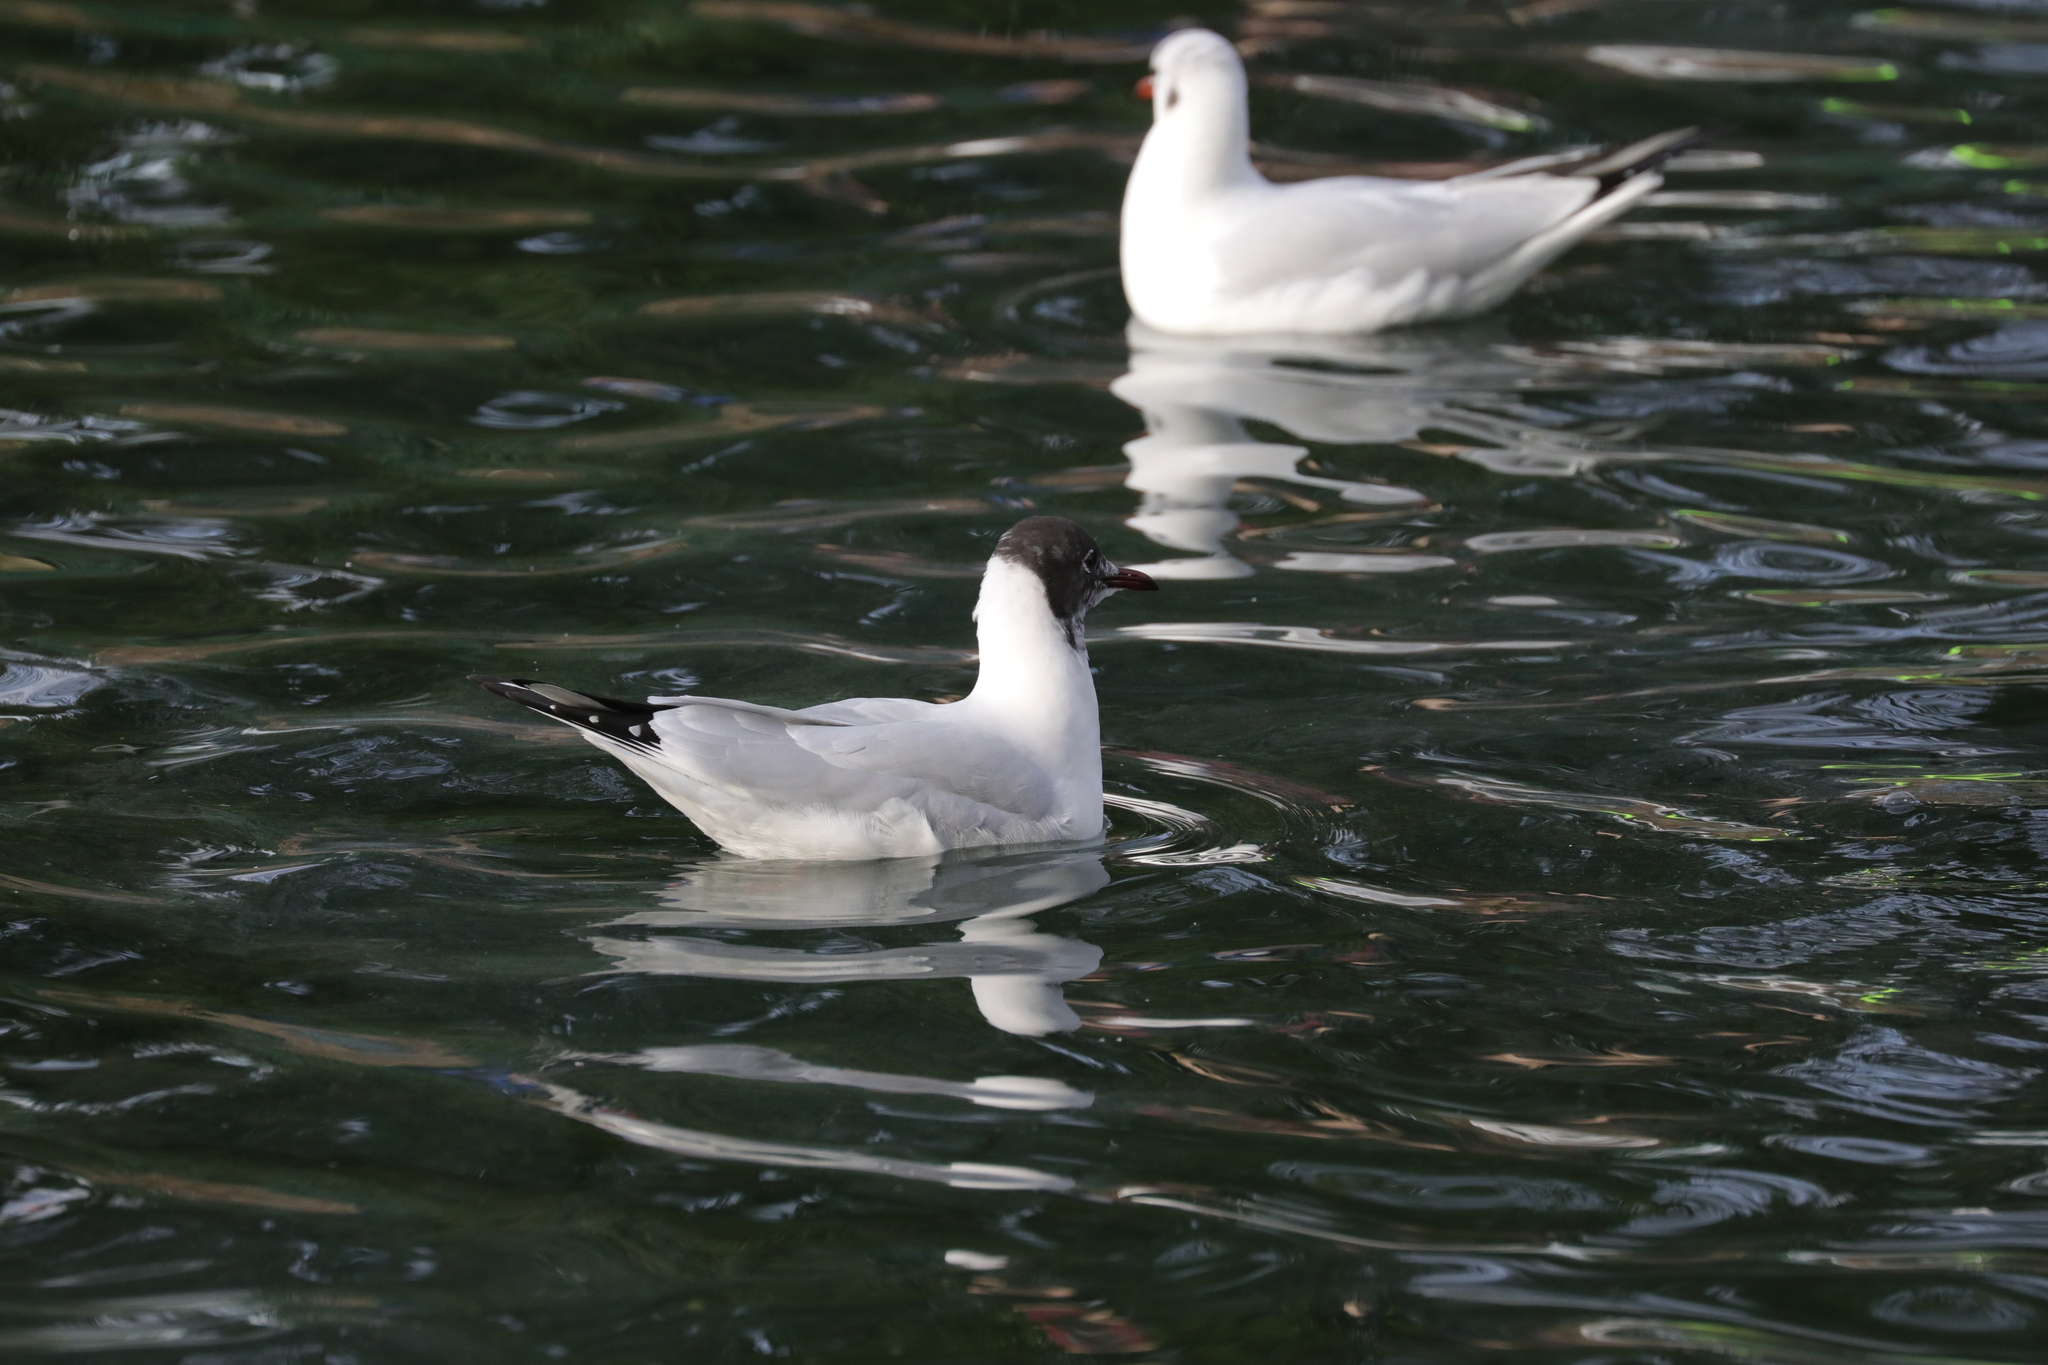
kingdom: Animalia
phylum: Chordata
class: Aves
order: Charadriiformes
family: Laridae
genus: Chroicocephalus
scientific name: Chroicocephalus ridibundus
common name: Black-headed gull
